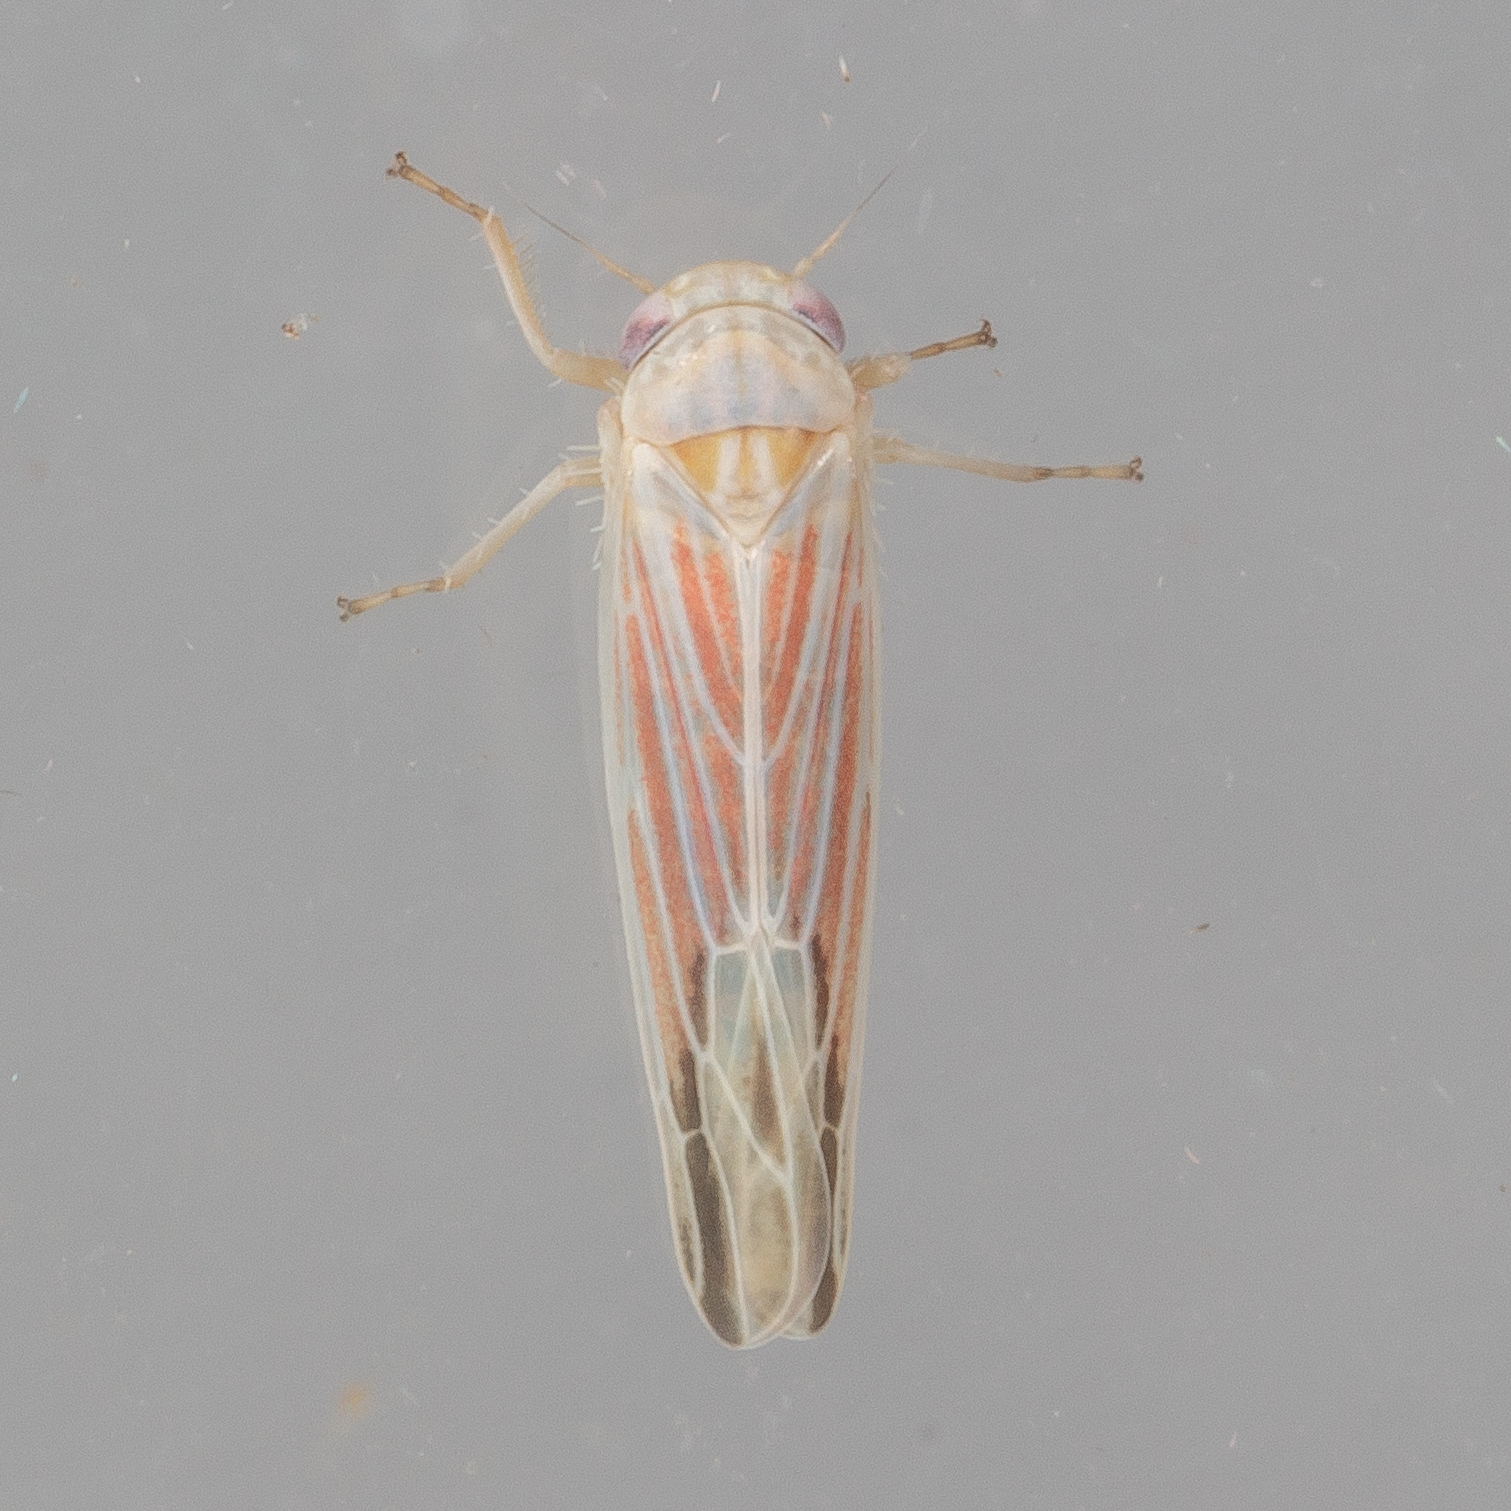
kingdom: Animalia
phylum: Arthropoda
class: Insecta
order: Hemiptera
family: Cicadellidae
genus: Balclutha
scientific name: Balclutha rubrostriata
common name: Red-streaked leafhopper
